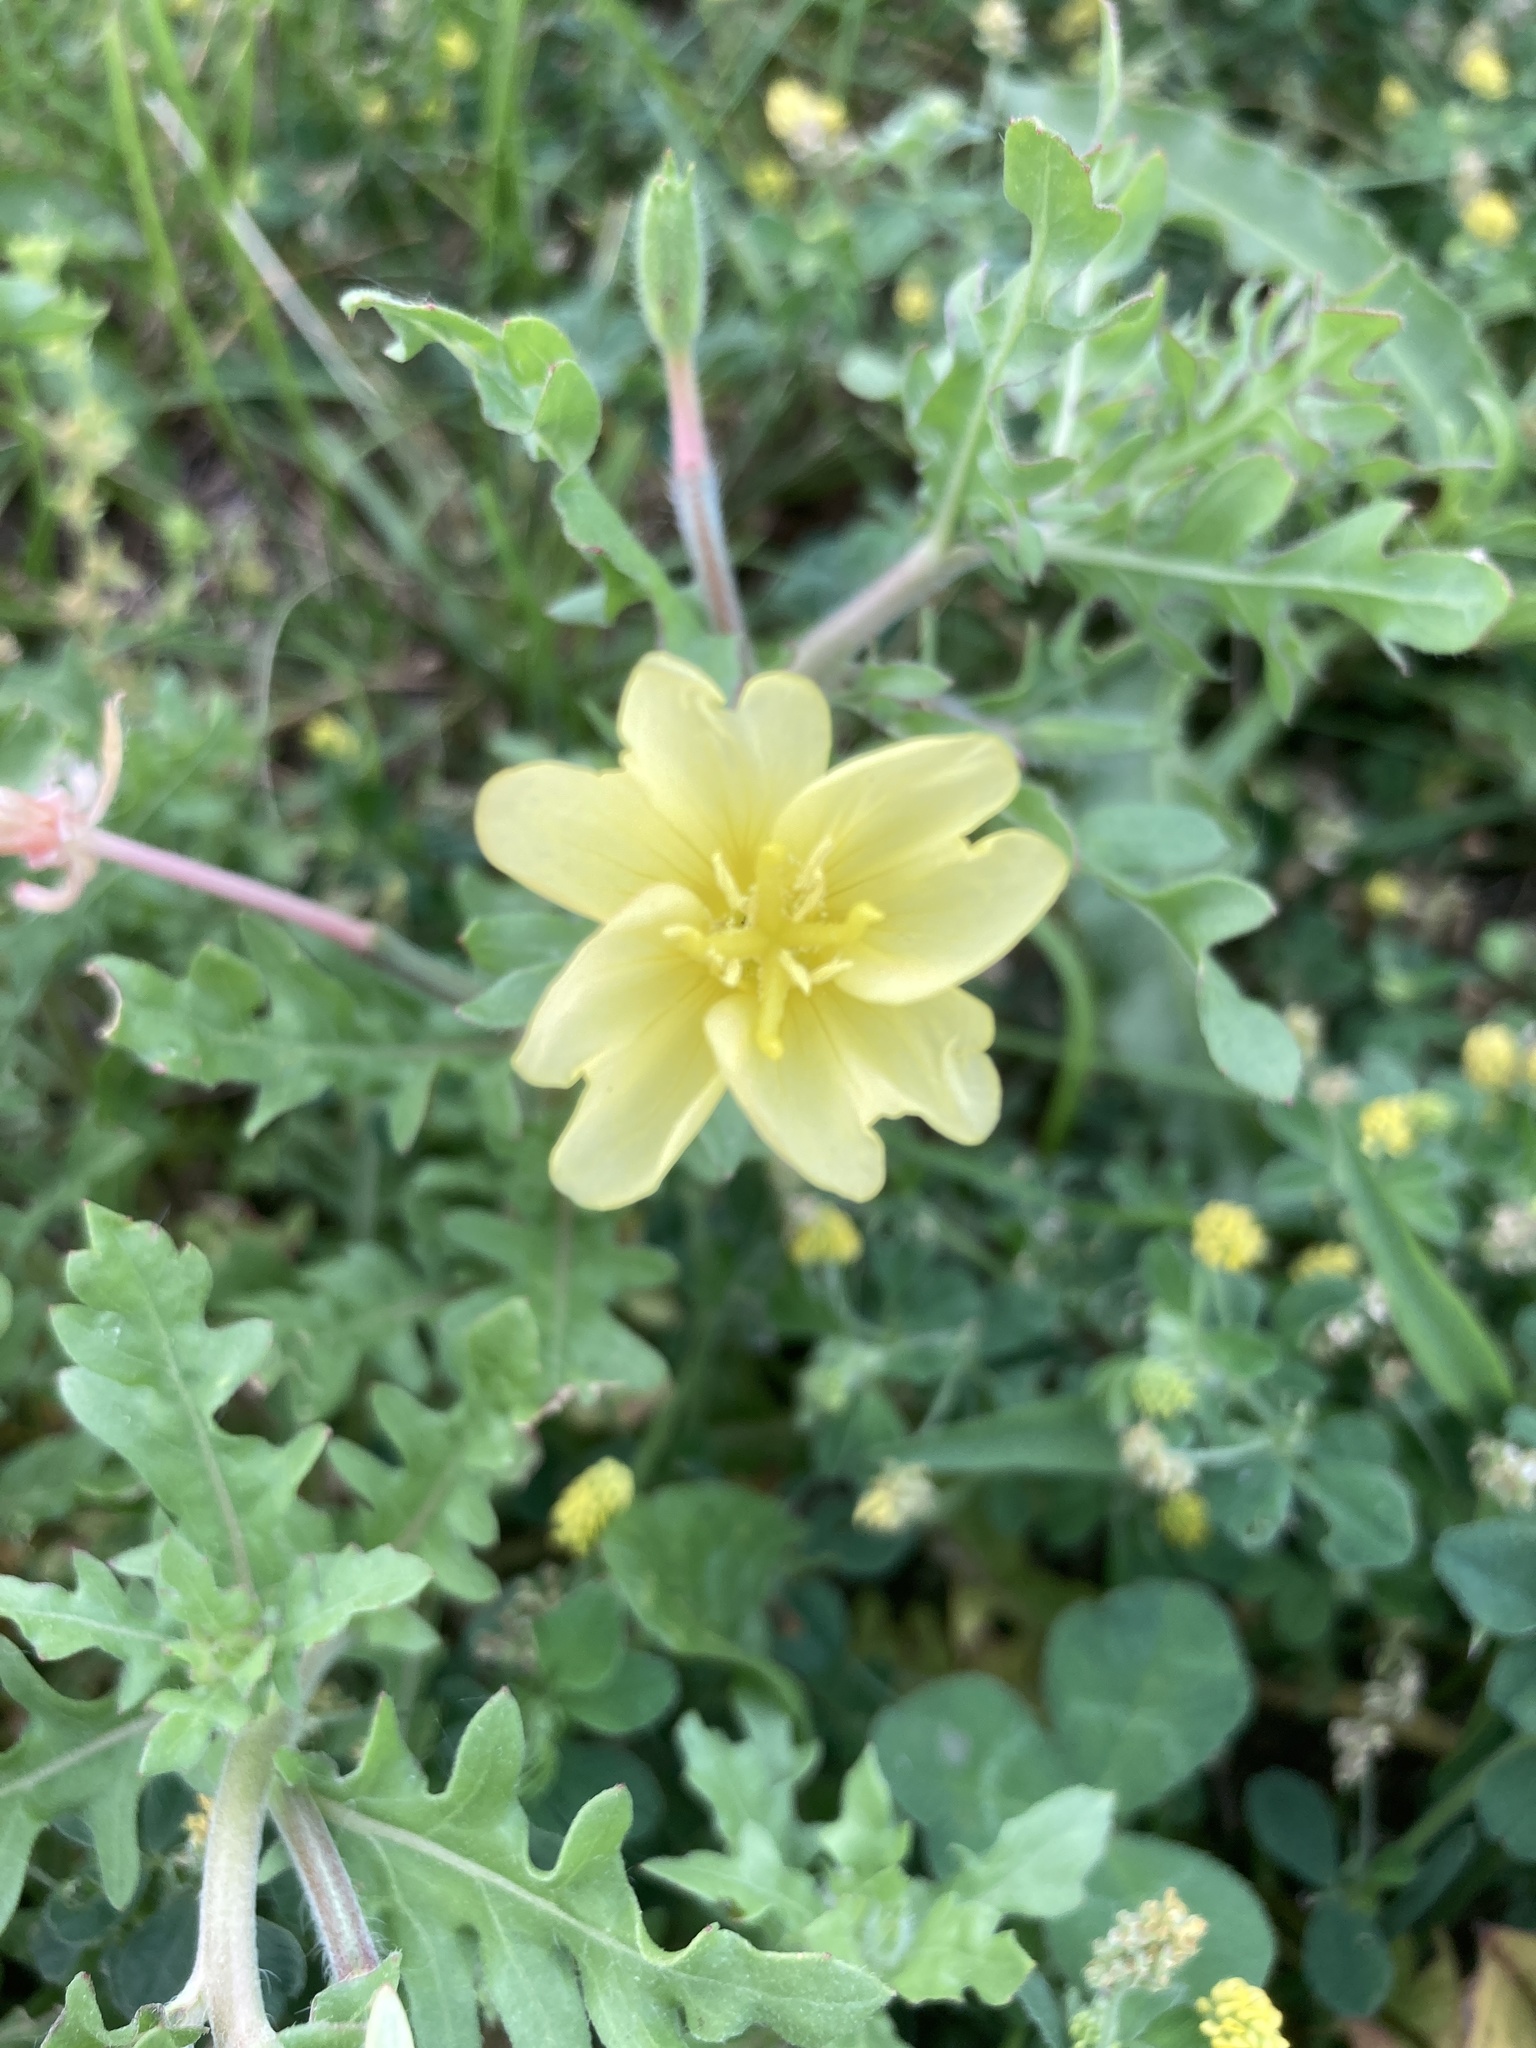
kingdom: Plantae
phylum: Tracheophyta
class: Magnoliopsida
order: Myrtales
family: Onagraceae
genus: Oenothera
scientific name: Oenothera laciniata
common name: Cut-leaved evening-primrose
